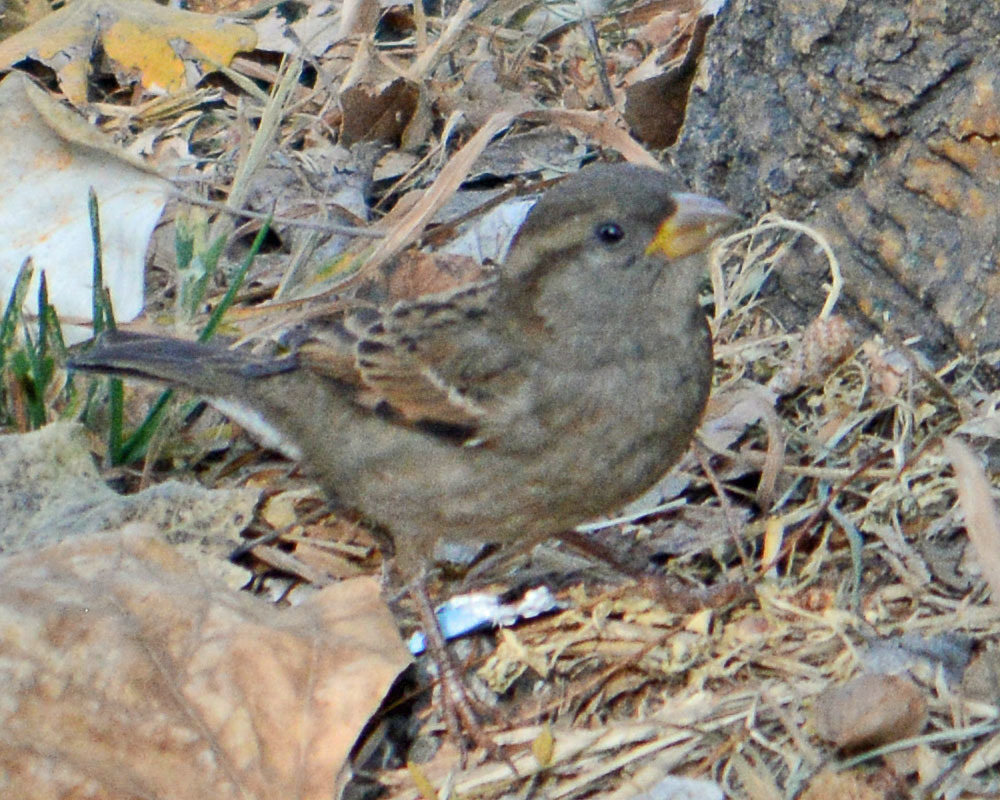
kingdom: Animalia
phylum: Chordata
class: Aves
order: Passeriformes
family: Passeridae
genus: Passer
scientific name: Passer domesticus
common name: House sparrow
